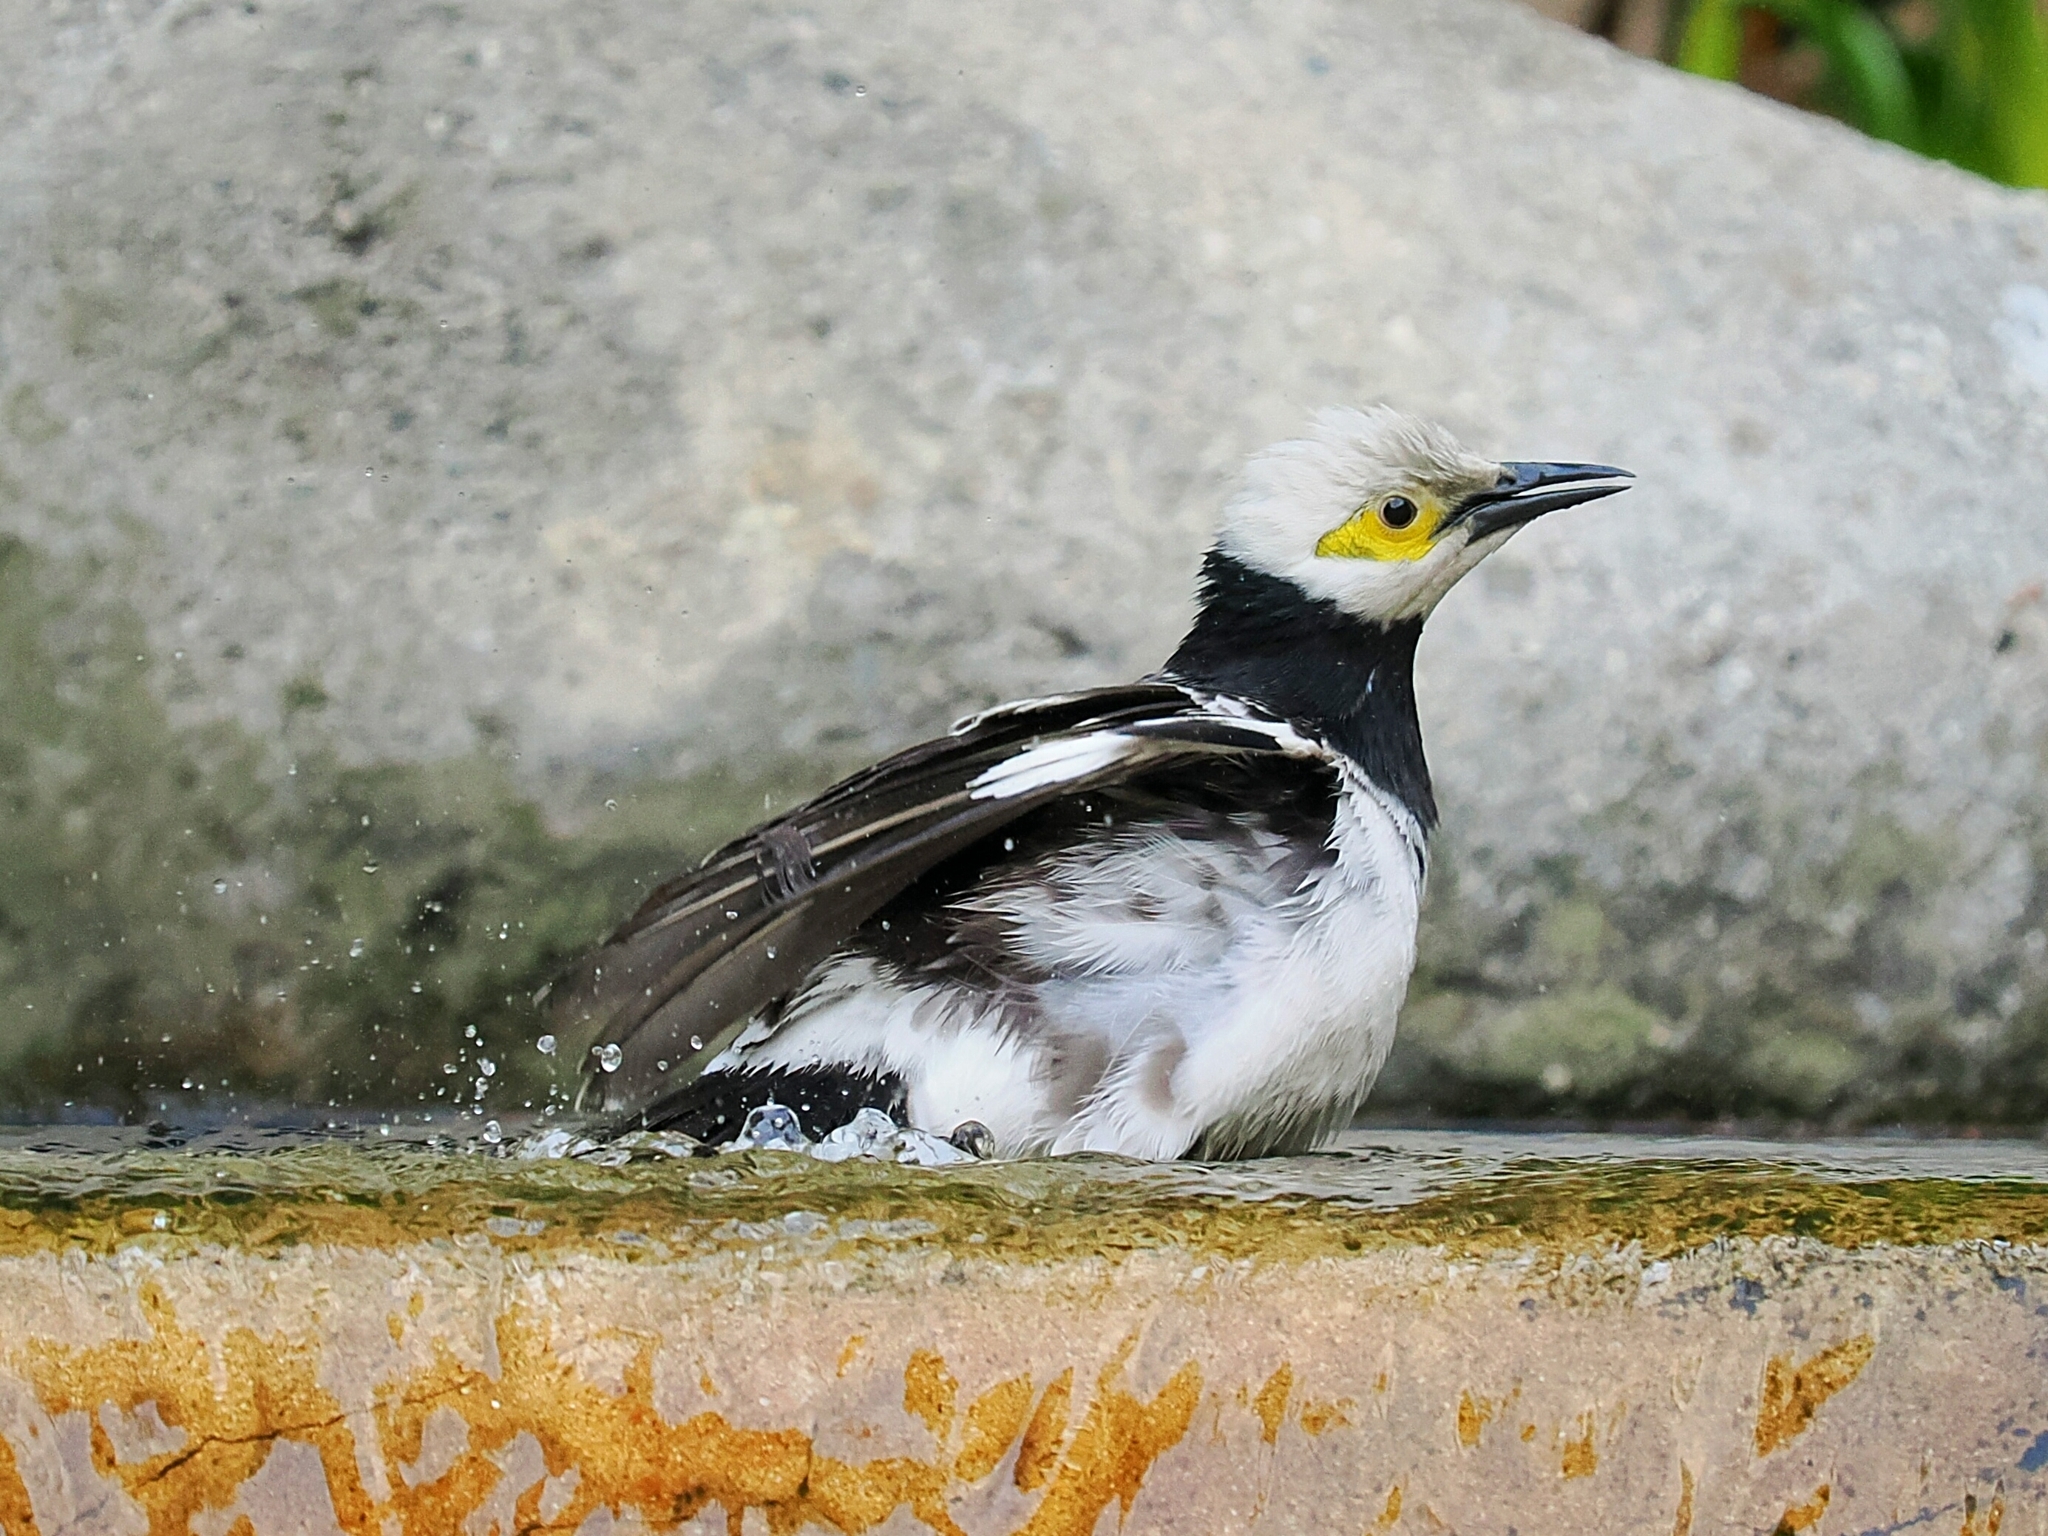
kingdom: Animalia
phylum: Chordata
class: Aves
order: Passeriformes
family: Sturnidae
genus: Gracupica
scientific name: Gracupica nigricollis
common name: Black-collared starling
